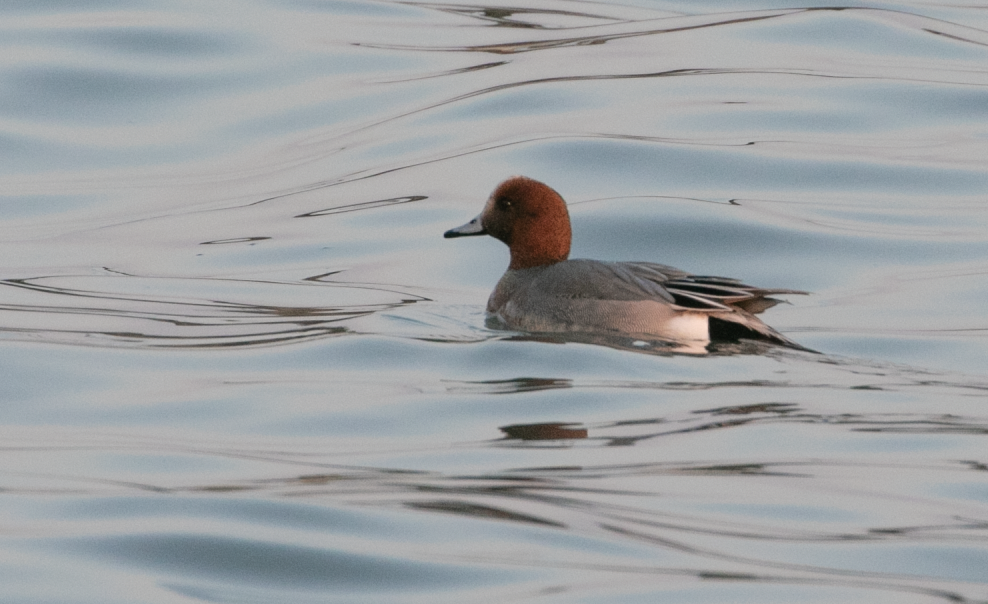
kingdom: Animalia
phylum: Chordata
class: Aves
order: Anseriformes
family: Anatidae
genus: Mareca
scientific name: Mareca penelope
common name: Eurasian wigeon
